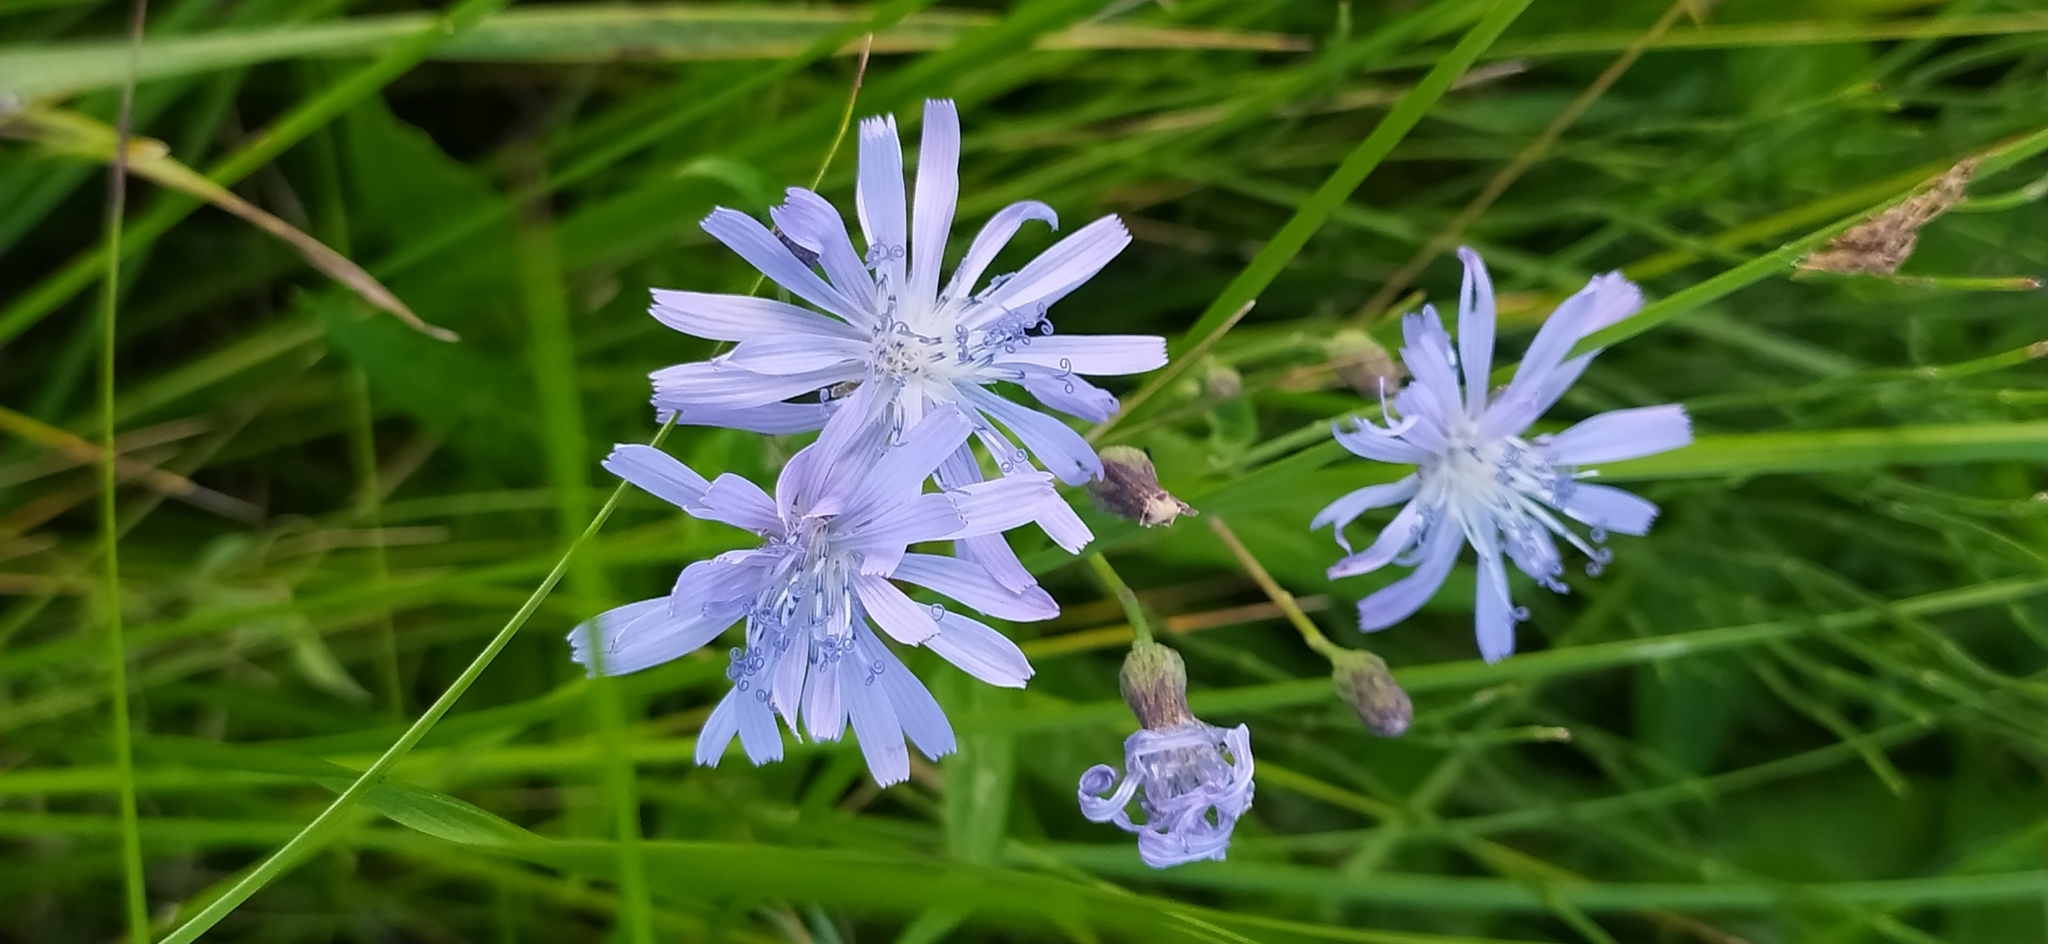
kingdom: Plantae
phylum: Tracheophyta
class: Magnoliopsida
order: Asterales
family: Asteraceae
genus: Lactuca
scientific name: Lactuca sibirica
